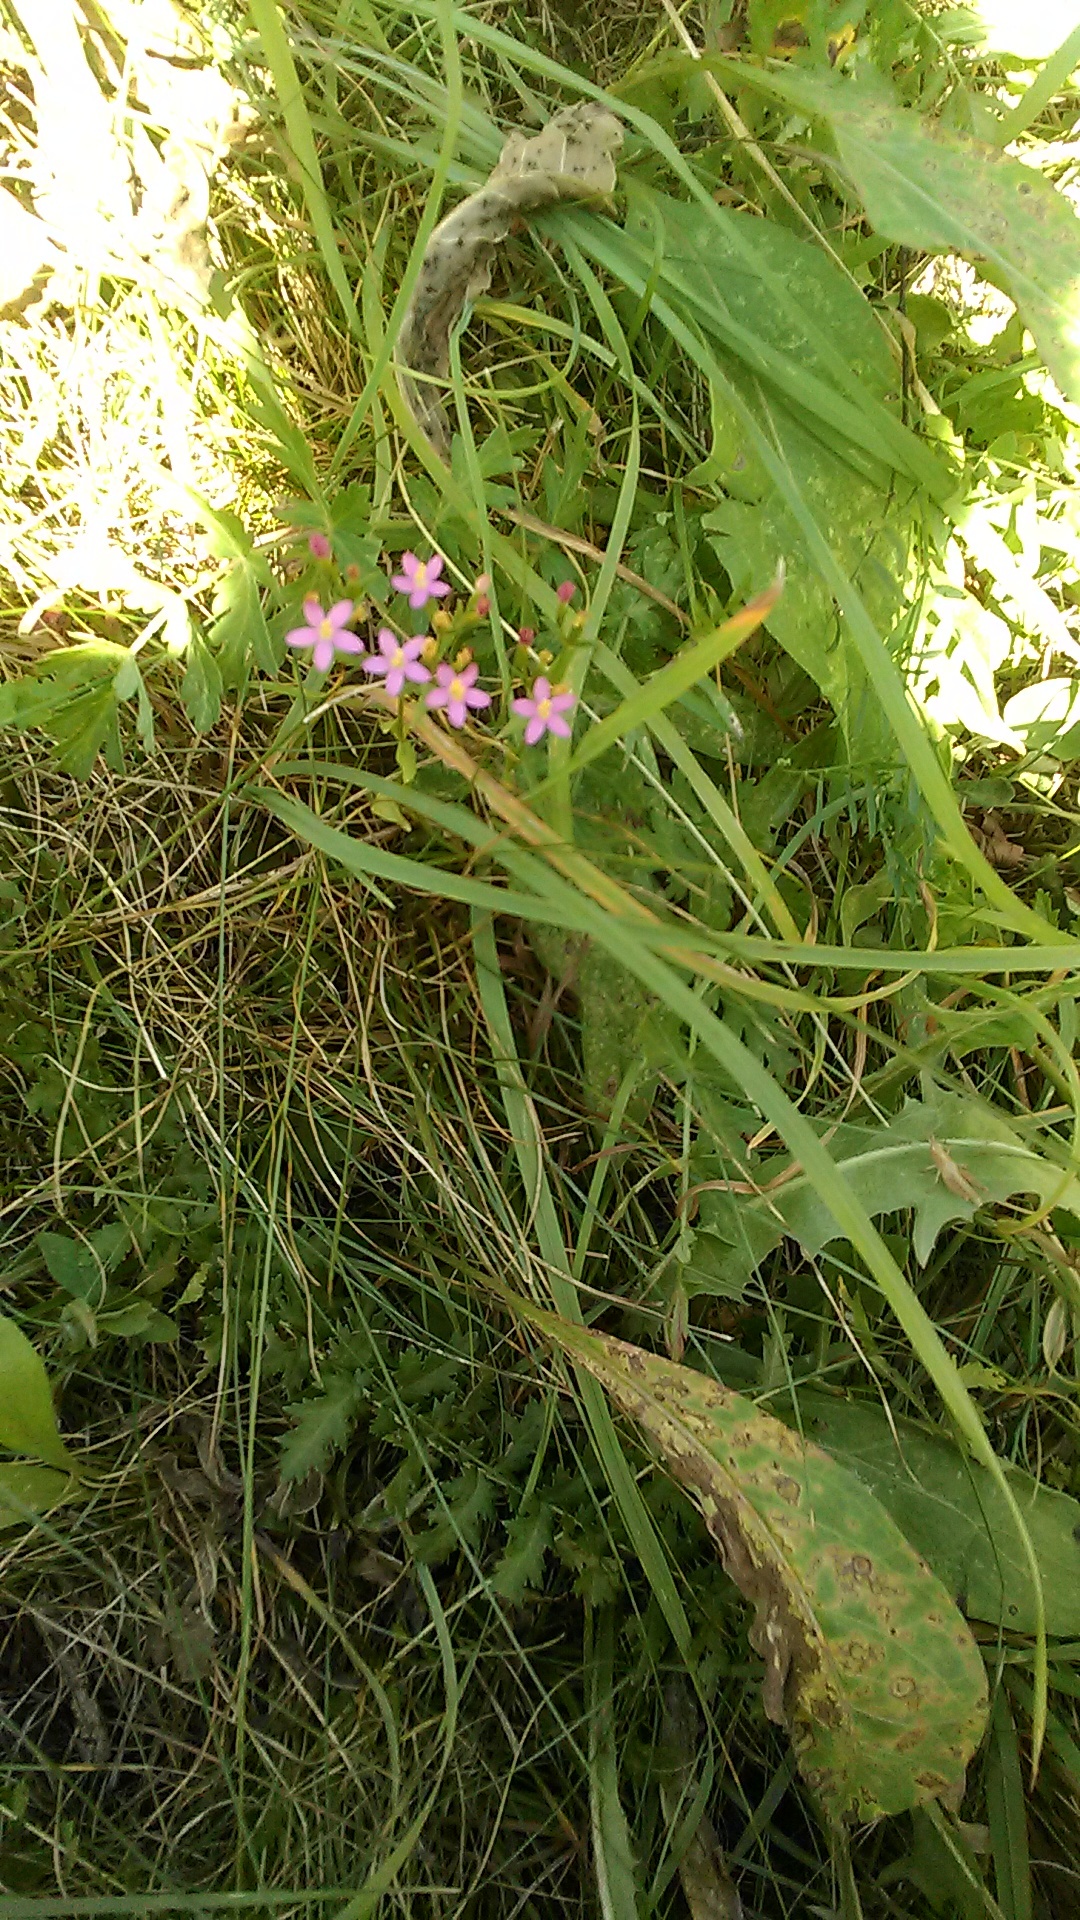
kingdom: Plantae
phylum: Tracheophyta
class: Magnoliopsida
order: Gentianales
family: Gentianaceae
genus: Centaurium
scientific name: Centaurium erythraea
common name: Common centaury
